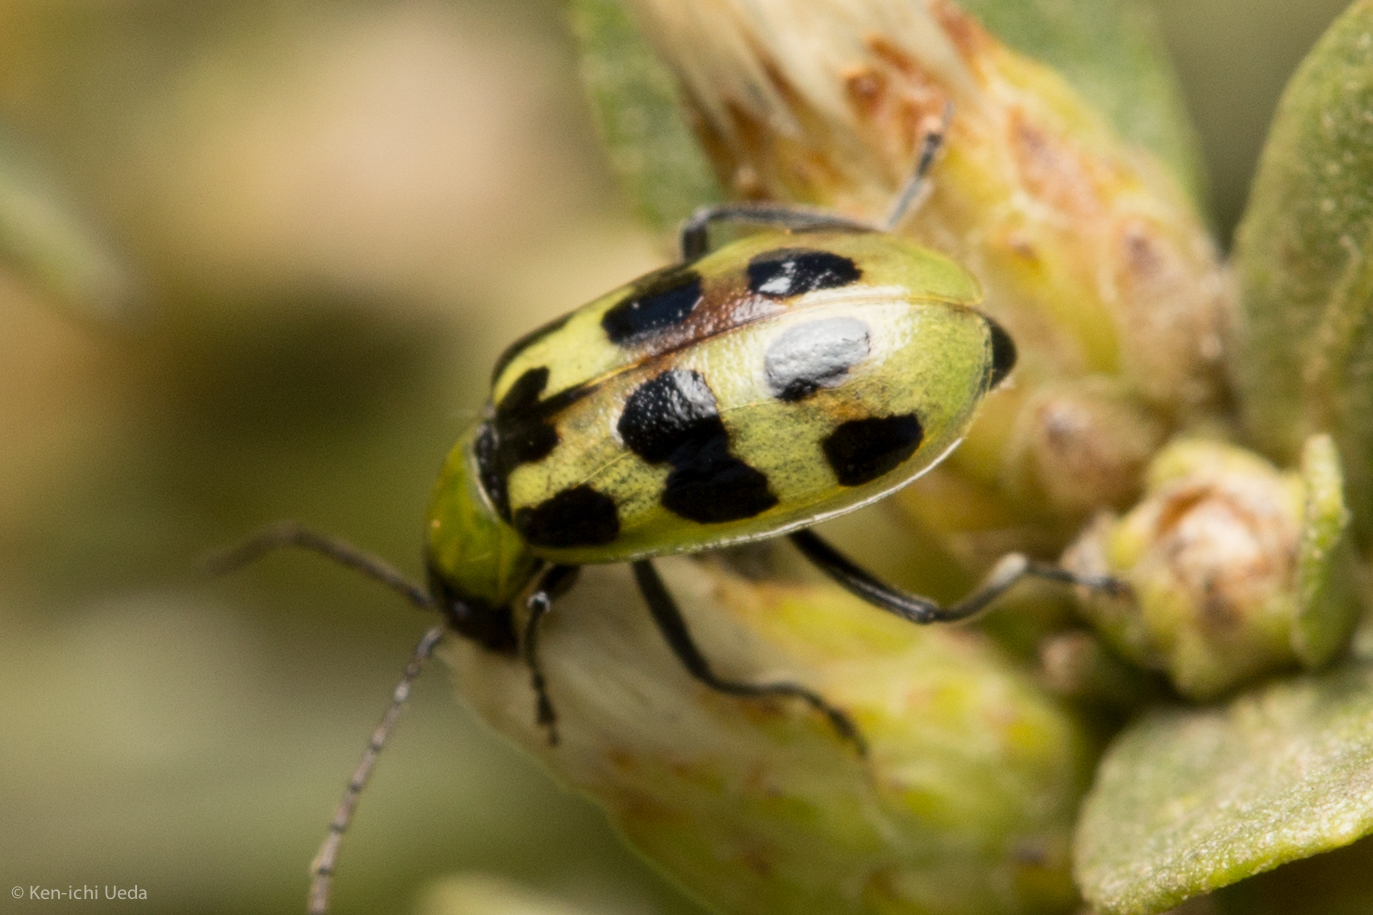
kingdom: Animalia
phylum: Arthropoda
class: Insecta
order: Coleoptera
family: Chrysomelidae
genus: Diabrotica
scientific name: Diabrotica undecimpunctata
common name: Spotted cucumber beetle
